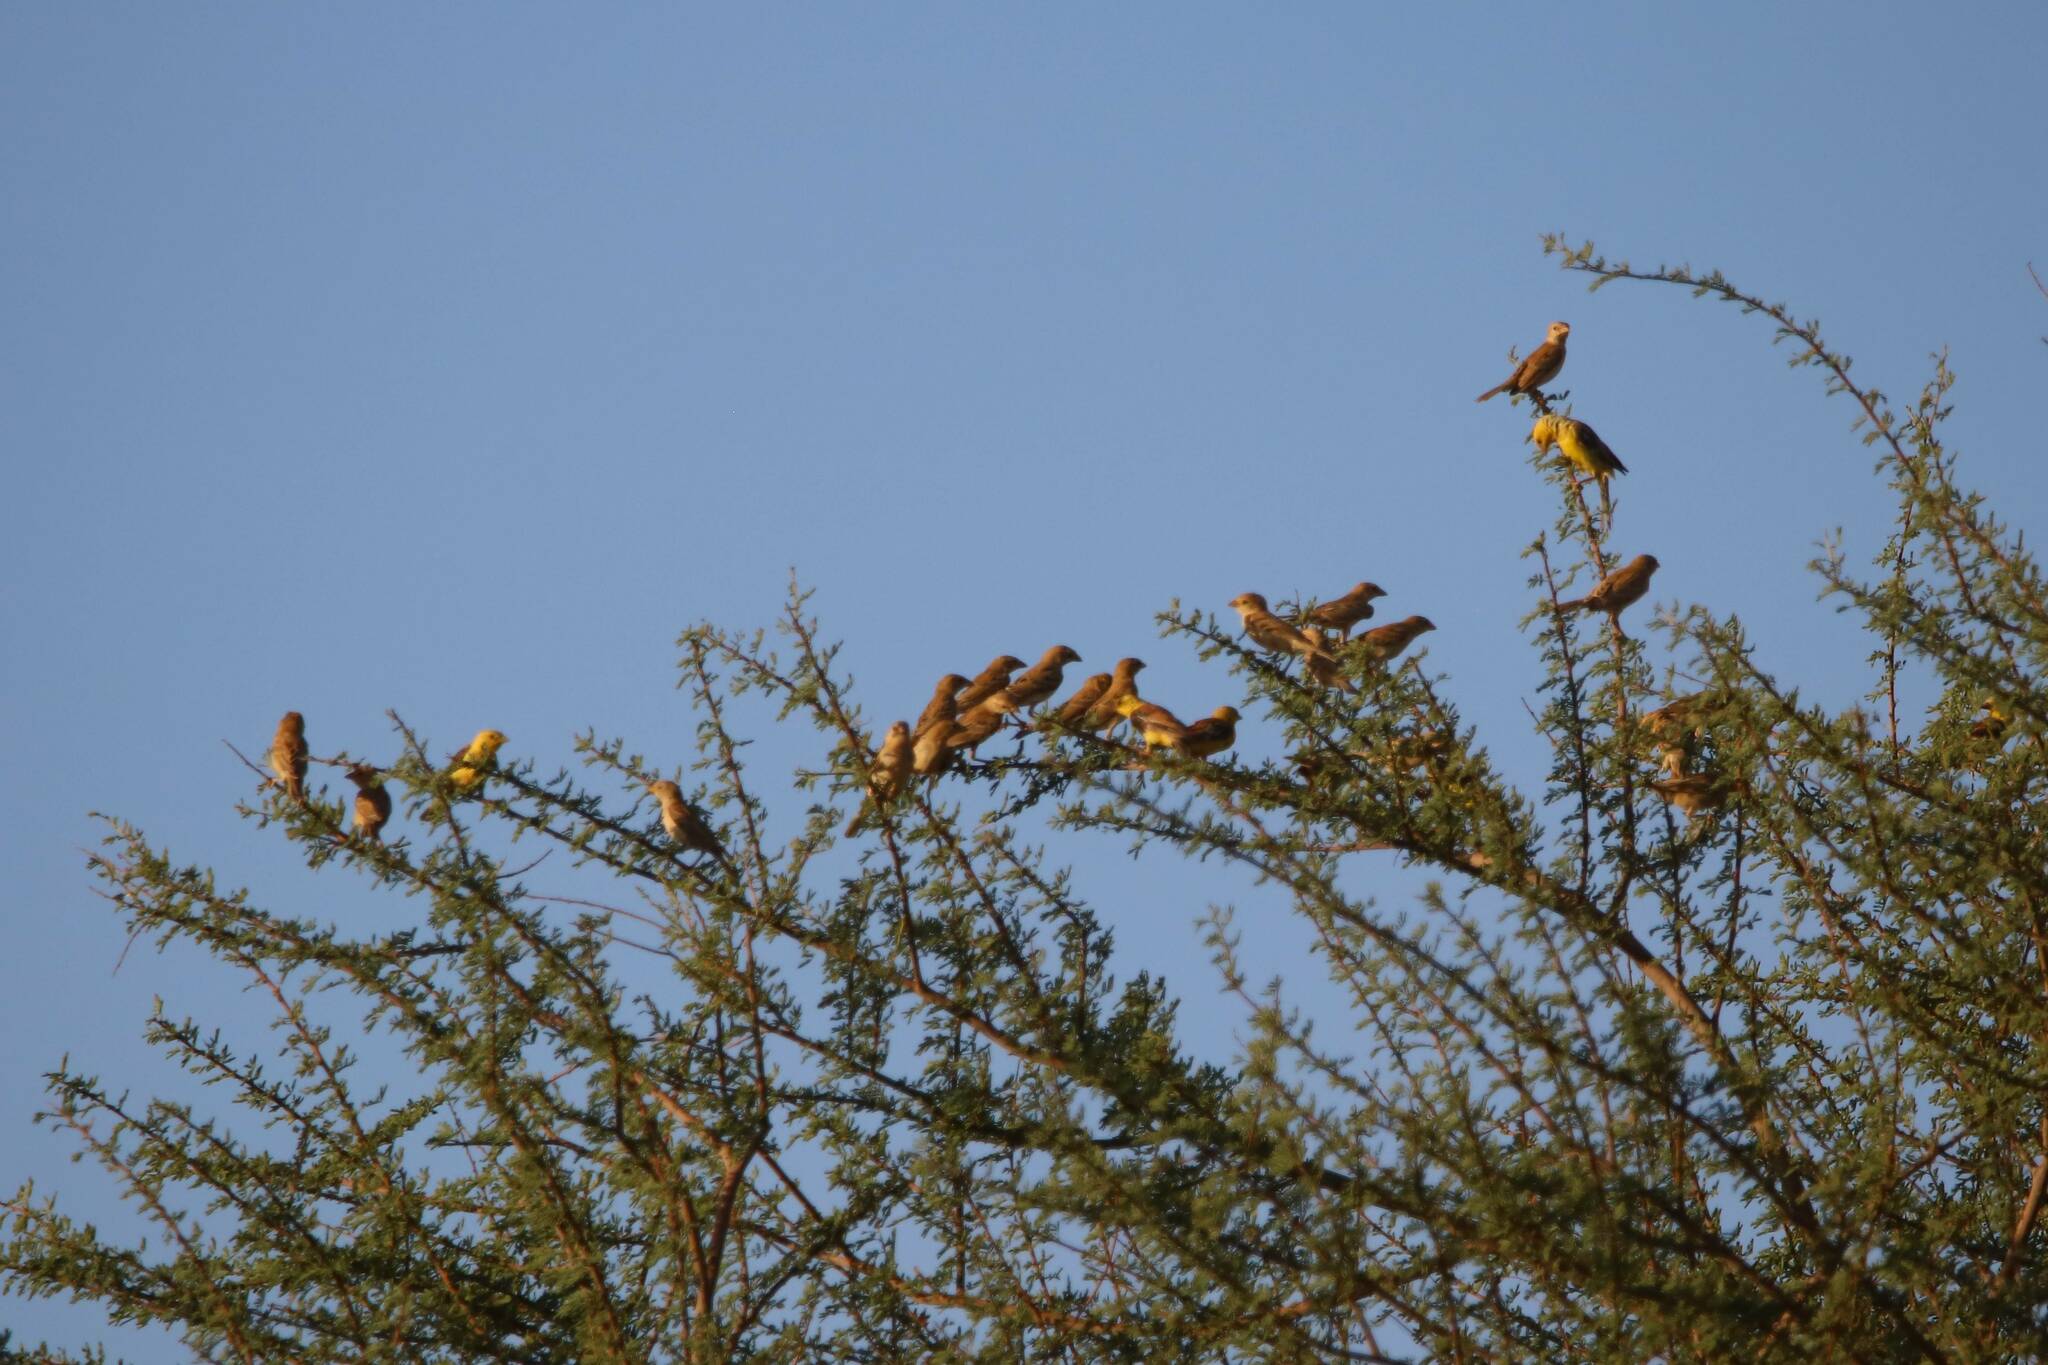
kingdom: Animalia
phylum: Chordata
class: Aves
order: Passeriformes
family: Passeridae
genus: Passer
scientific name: Passer luteus
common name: Sudan golden sparrow
